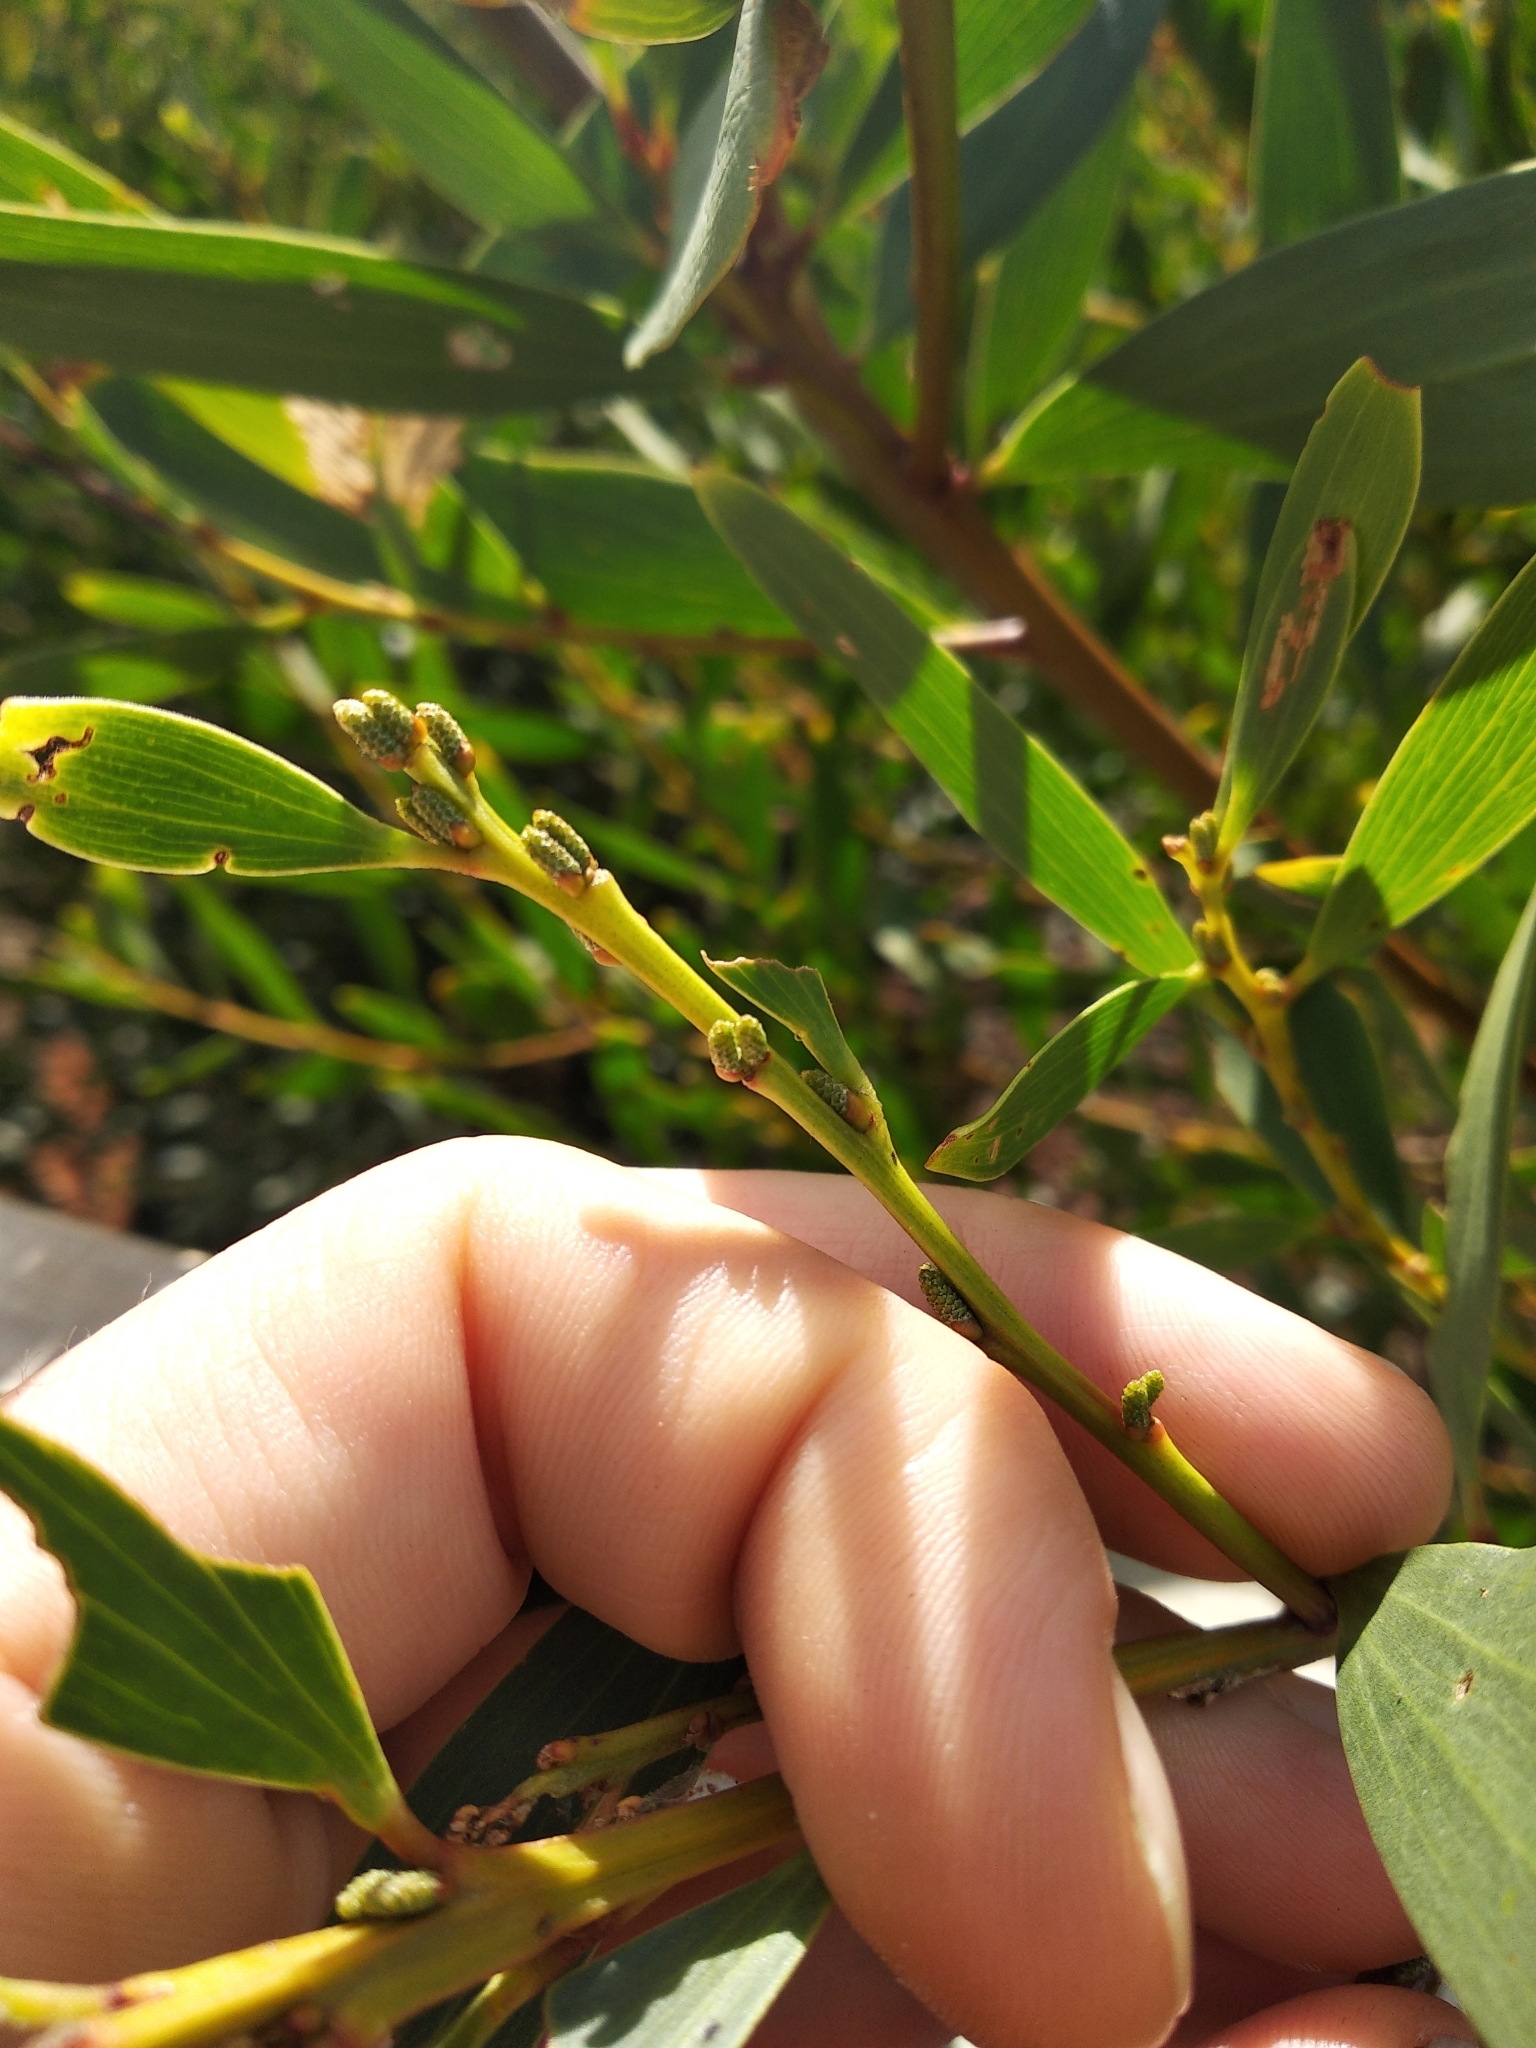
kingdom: Plantae
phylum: Tracheophyta
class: Magnoliopsida
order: Fabales
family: Fabaceae
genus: Acacia
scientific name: Acacia longifolia
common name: Sydney golden wattle
